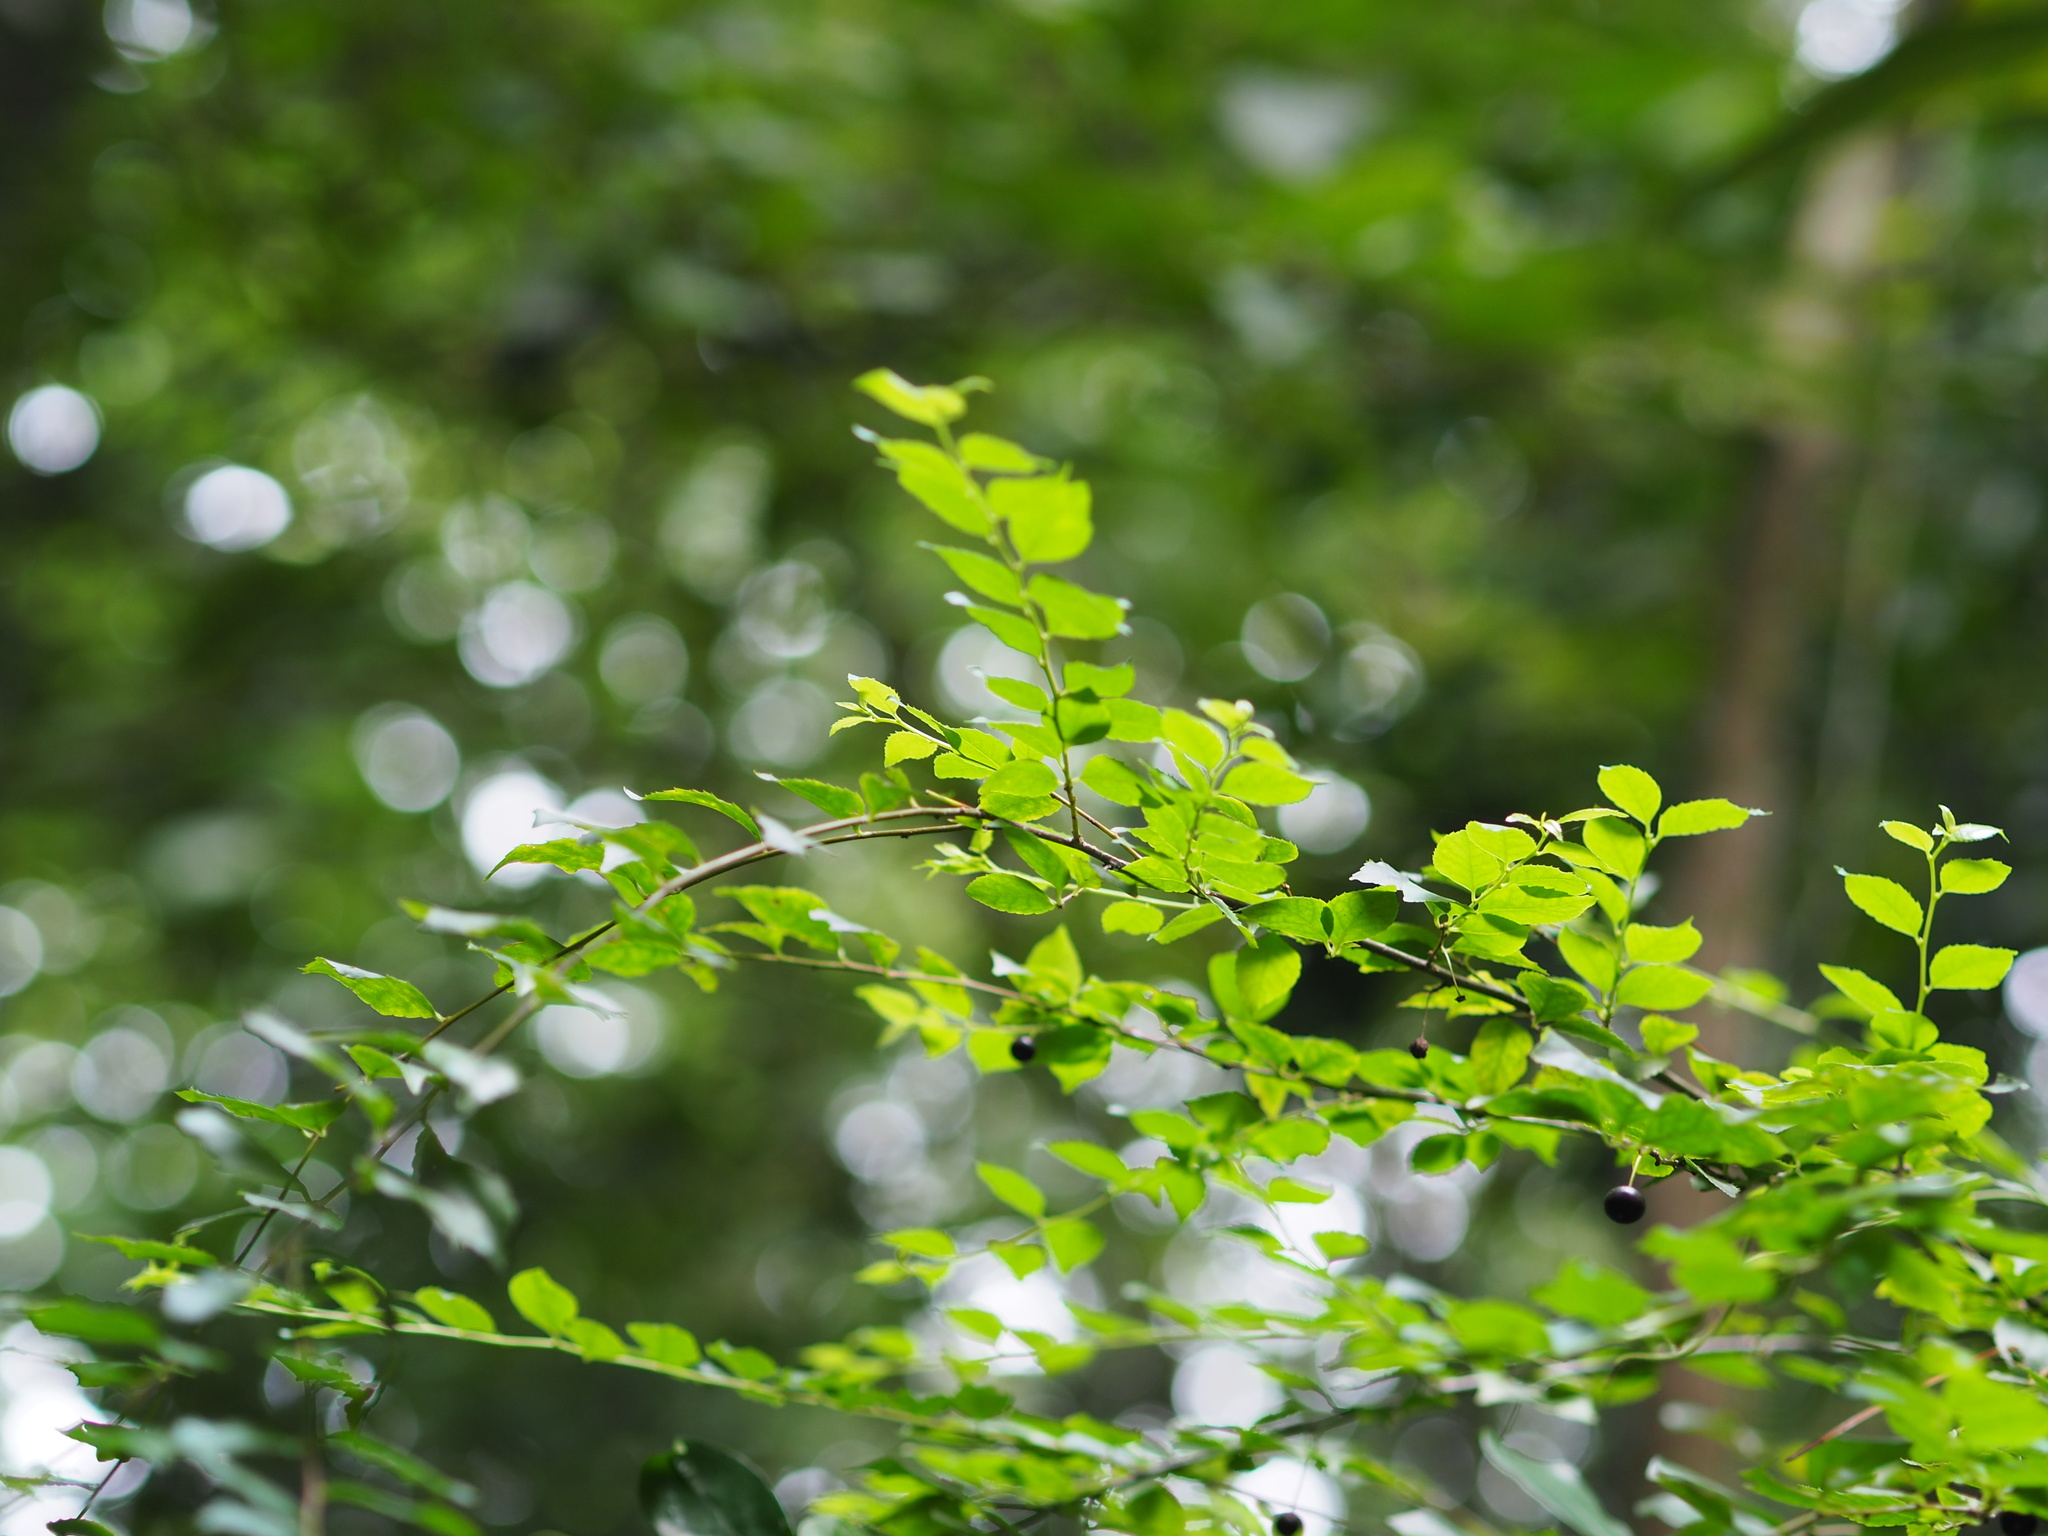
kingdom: Plantae
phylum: Tracheophyta
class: Magnoliopsida
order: Aquifoliales
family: Aquifoliaceae
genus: Ilex
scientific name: Ilex asprella
